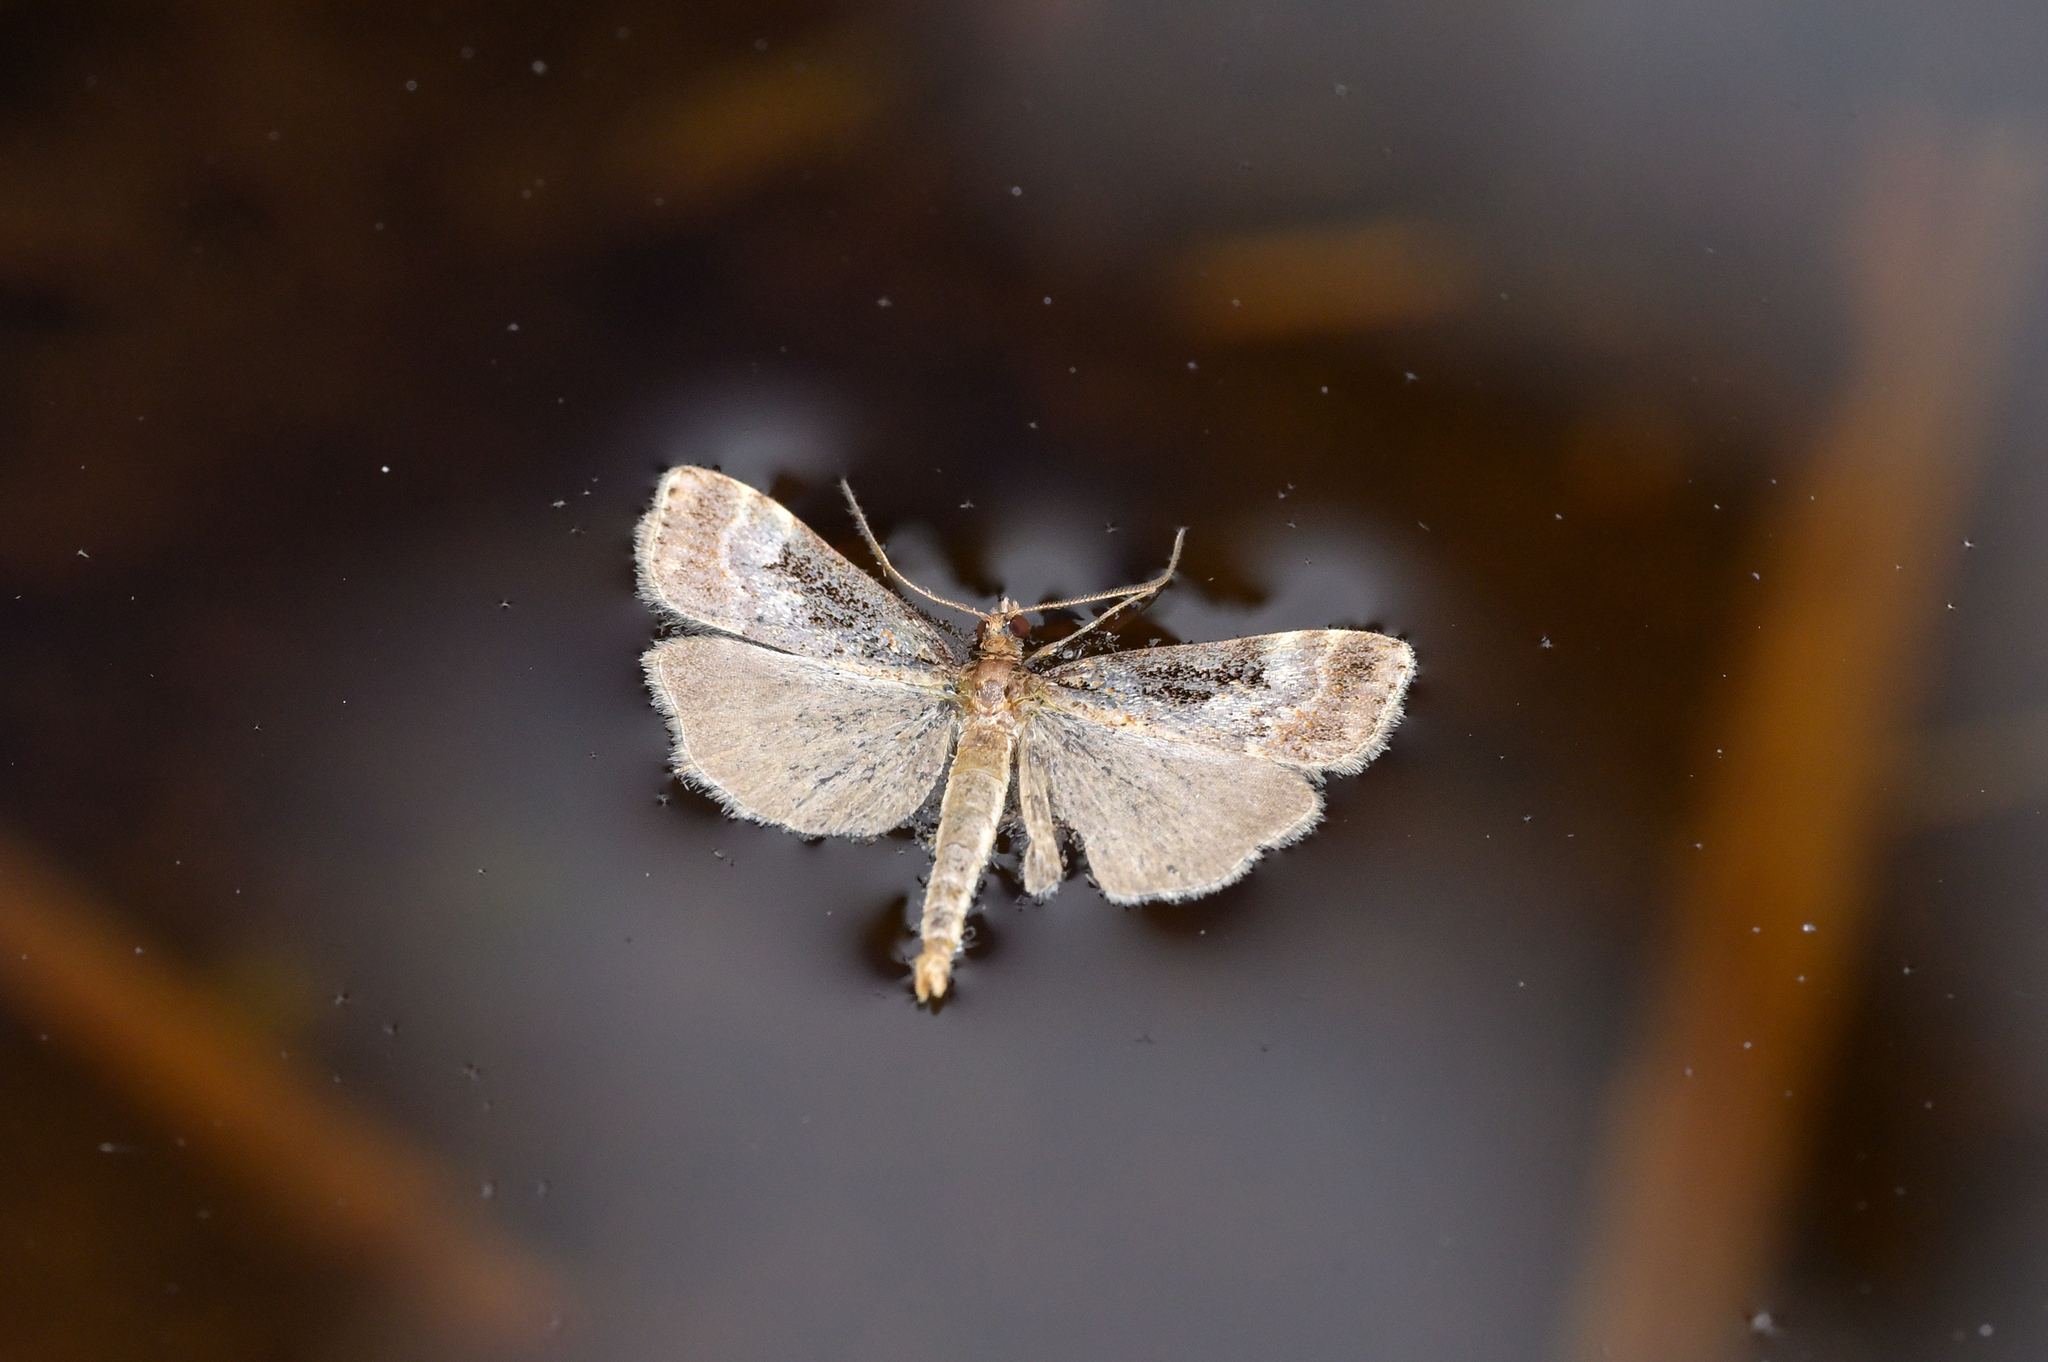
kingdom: Animalia
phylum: Arthropoda
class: Insecta
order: Lepidoptera
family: Crambidae
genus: Scoparia
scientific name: Scoparia parmifera
